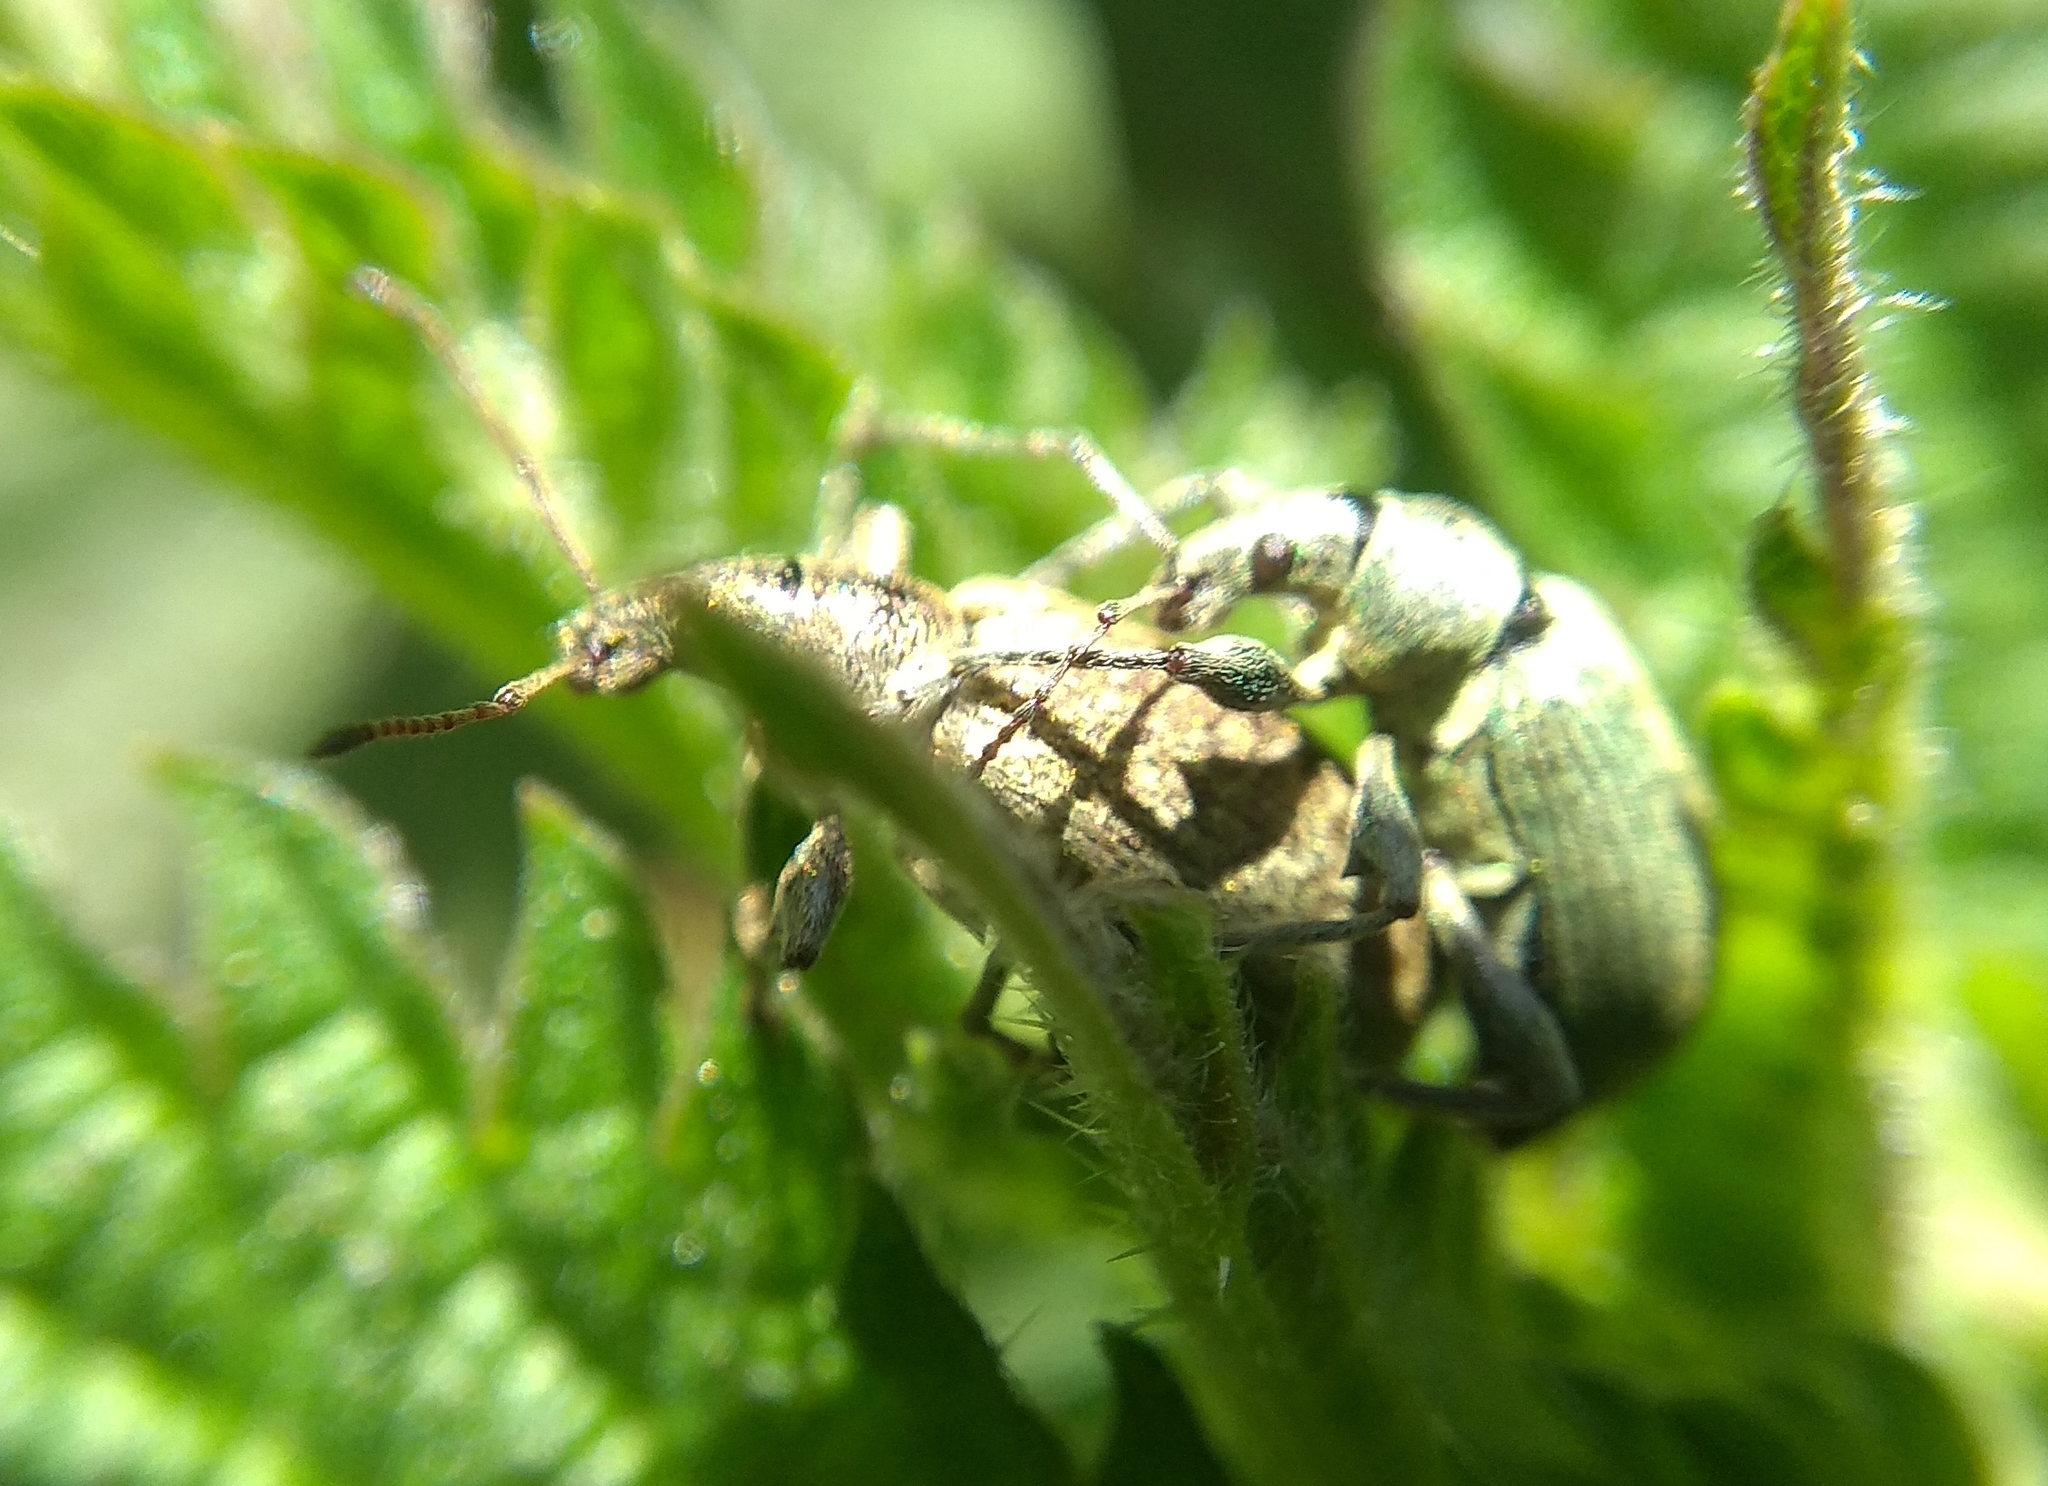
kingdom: Animalia
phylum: Arthropoda
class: Insecta
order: Coleoptera
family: Curculionidae
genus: Phyllobius
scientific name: Phyllobius pomaceus
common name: Green nettle weevil
